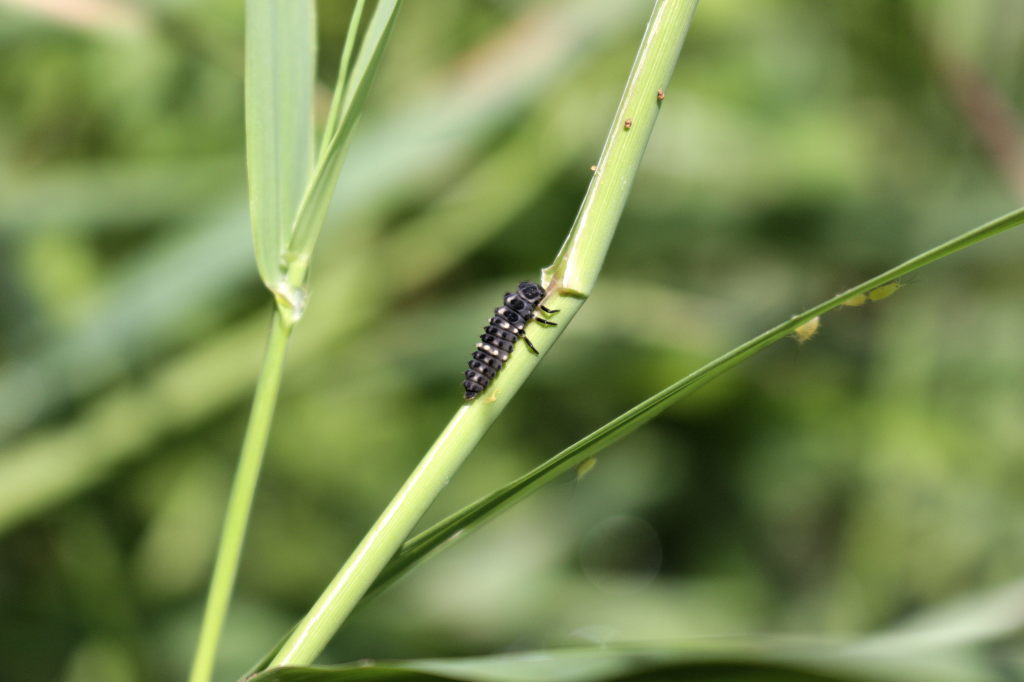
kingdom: Animalia
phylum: Arthropoda
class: Insecta
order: Coleoptera
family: Coccinellidae
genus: Hippodamia
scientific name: Hippodamia tredecimpunctata
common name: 13-spot ladybird
